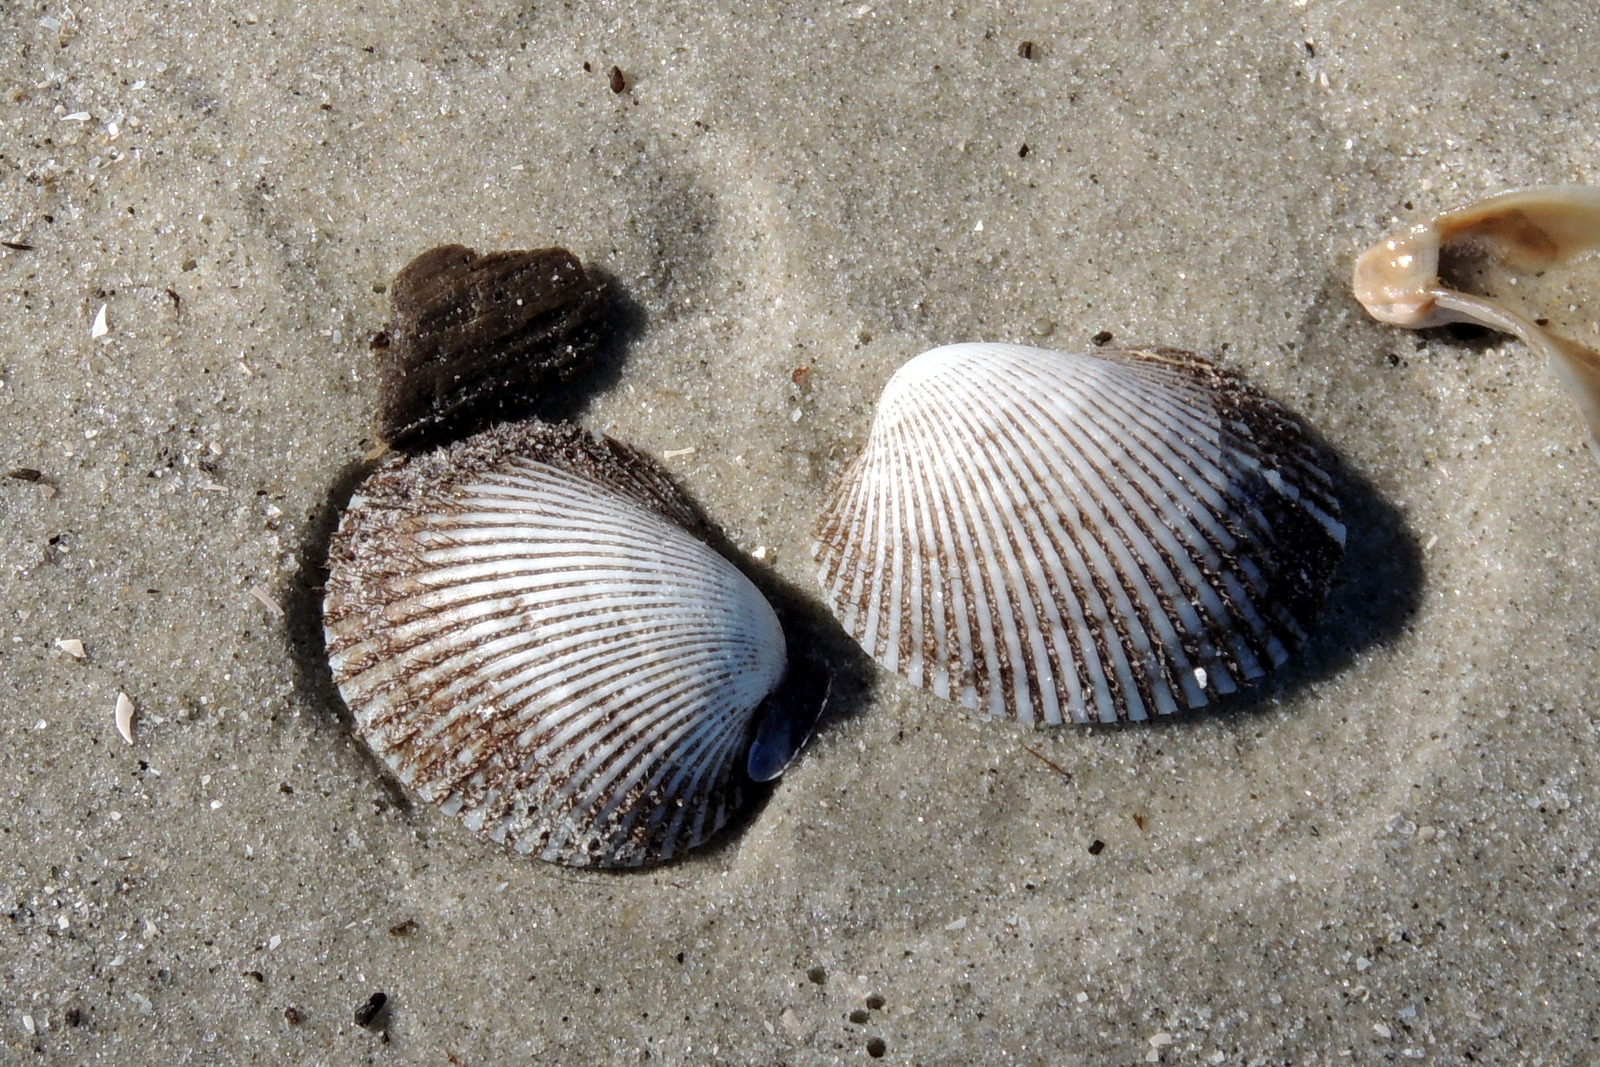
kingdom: Animalia
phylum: Mollusca
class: Bivalvia
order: Arcida
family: Arcidae
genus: Lunarca
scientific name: Lunarca ovalis
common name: Blood ark
